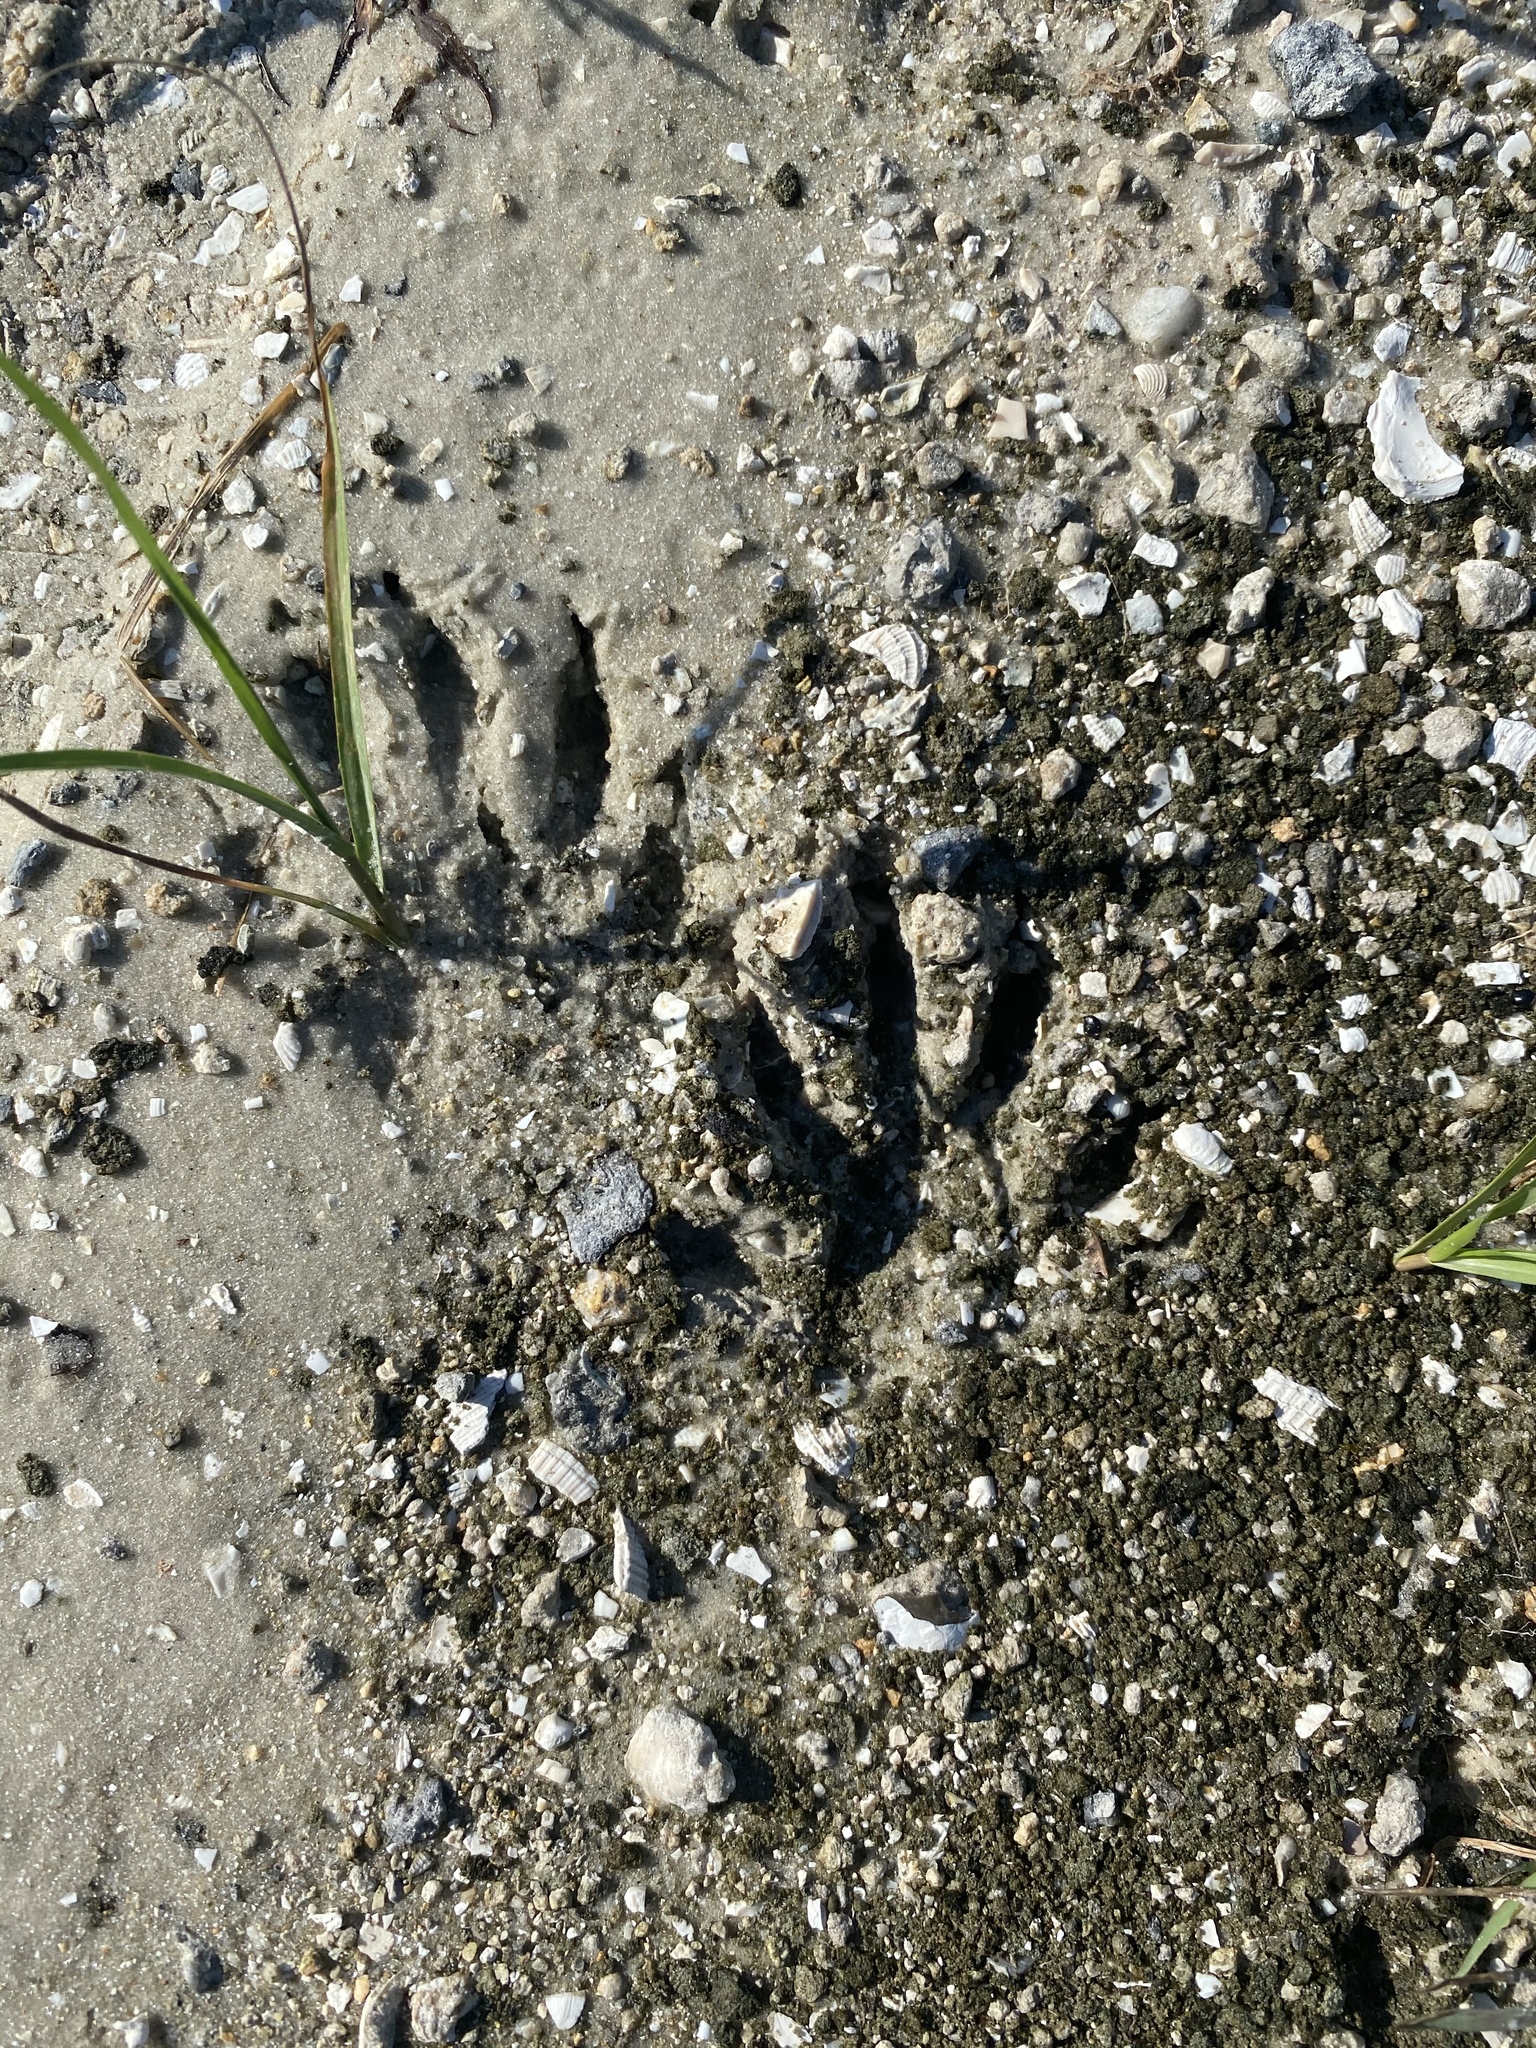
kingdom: Animalia
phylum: Chordata
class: Mammalia
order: Carnivora
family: Procyonidae
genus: Procyon
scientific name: Procyon lotor
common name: Raccoon
